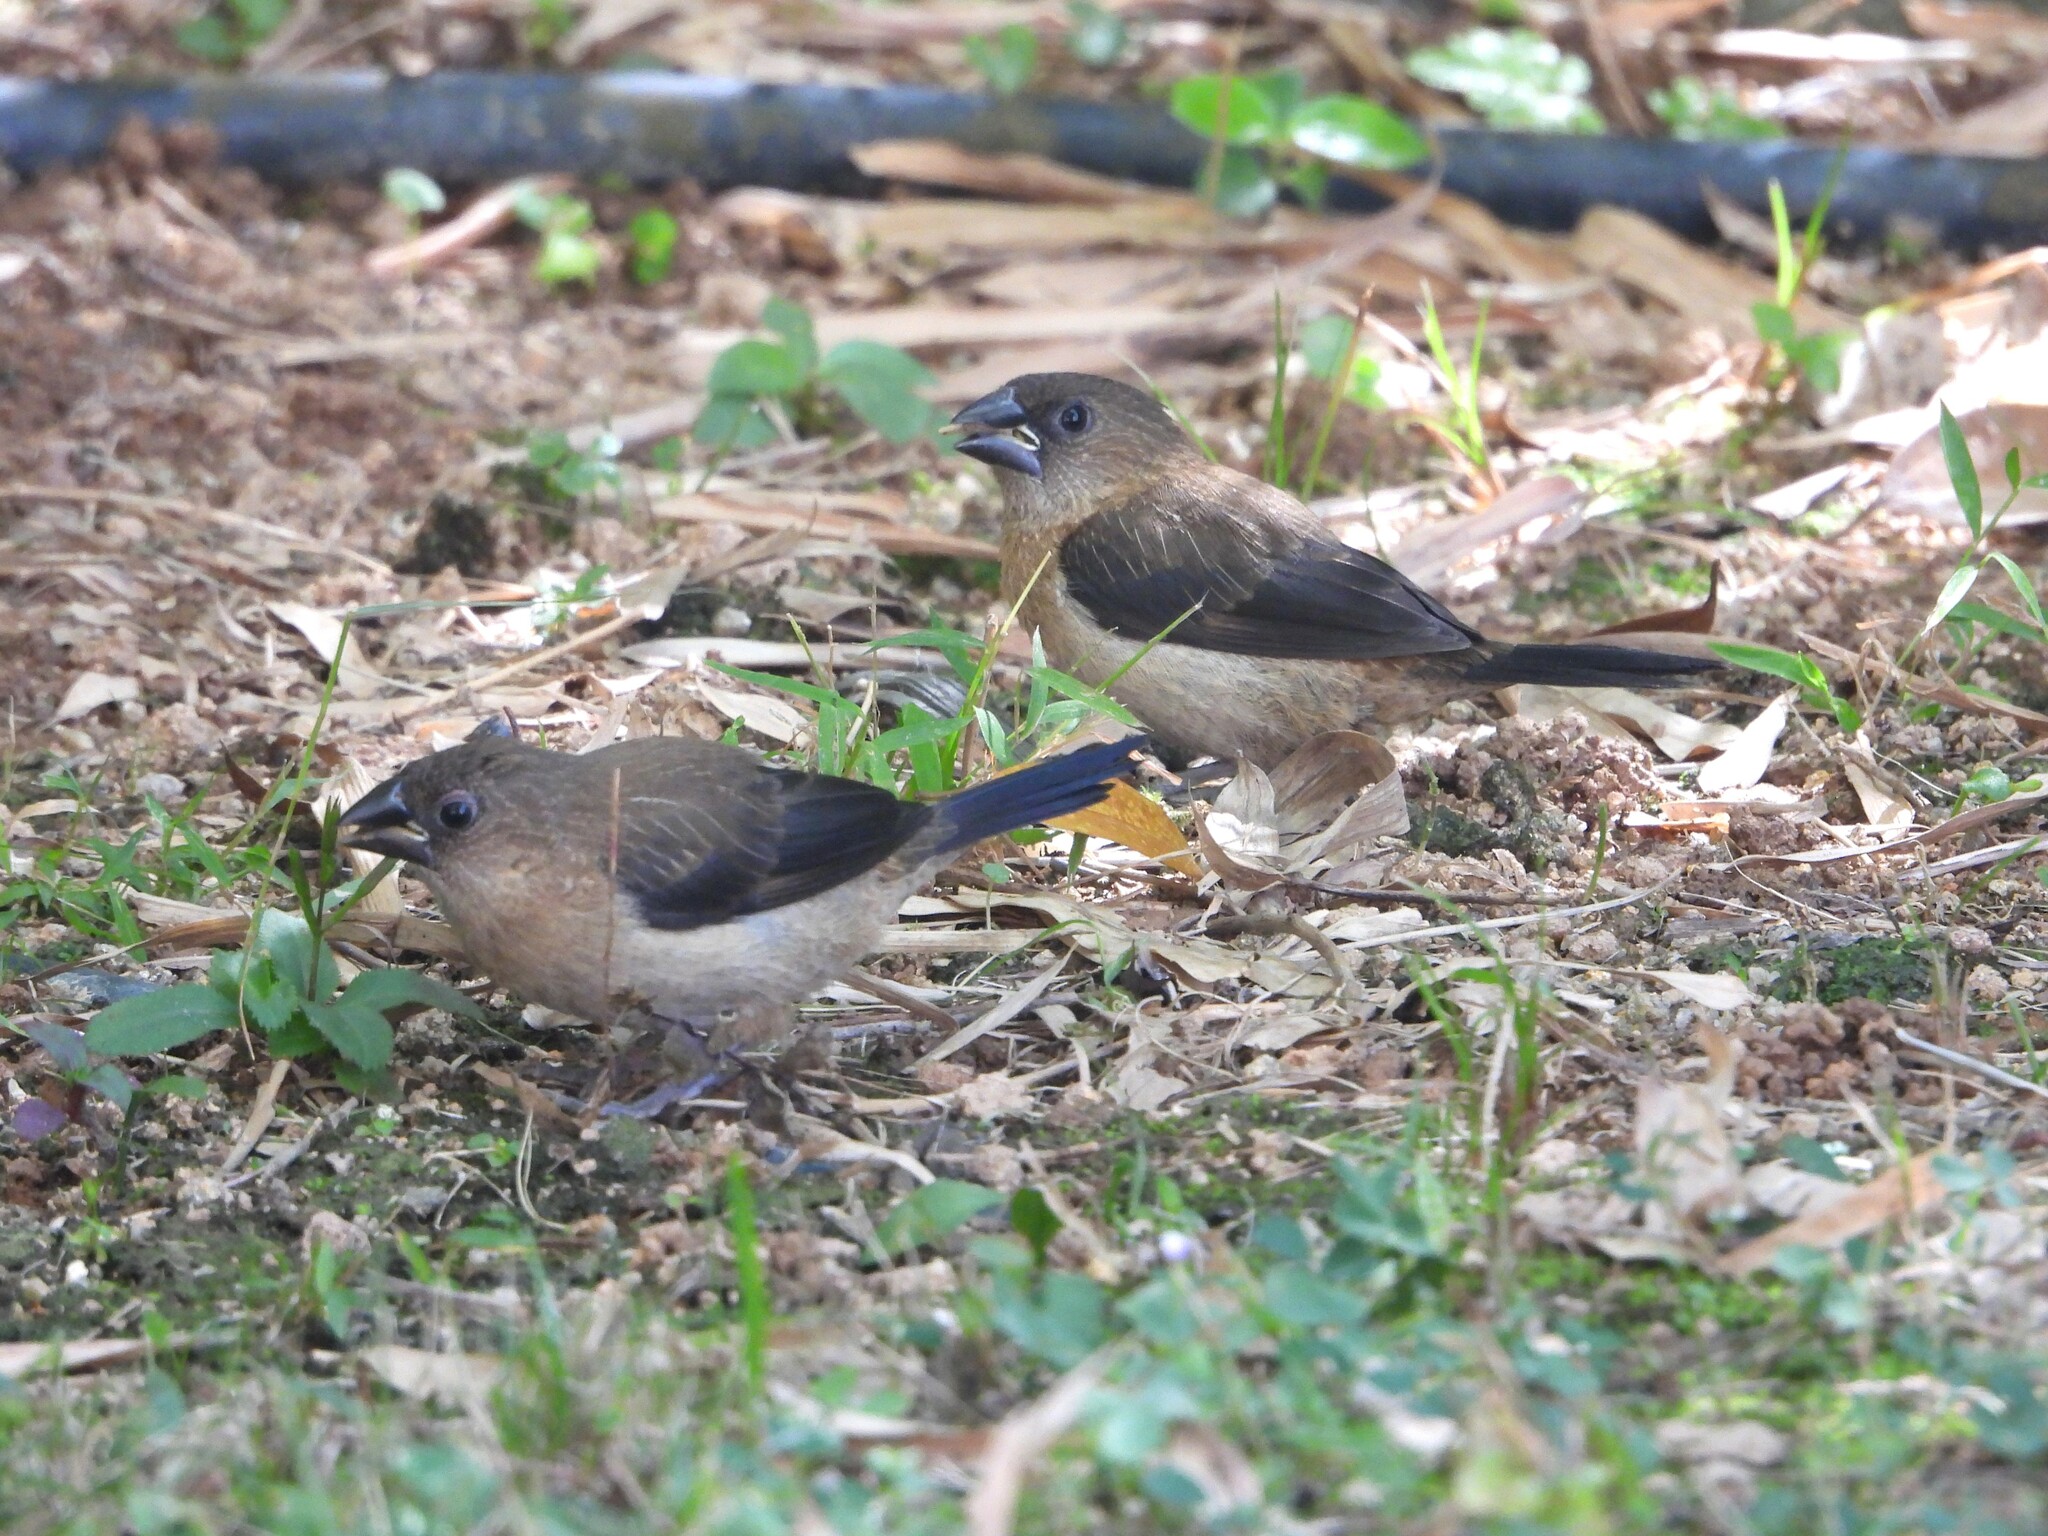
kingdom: Animalia
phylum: Chordata
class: Aves
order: Passeriformes
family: Estrildidae
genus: Lonchura
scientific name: Lonchura striata
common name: White-rumped munia
